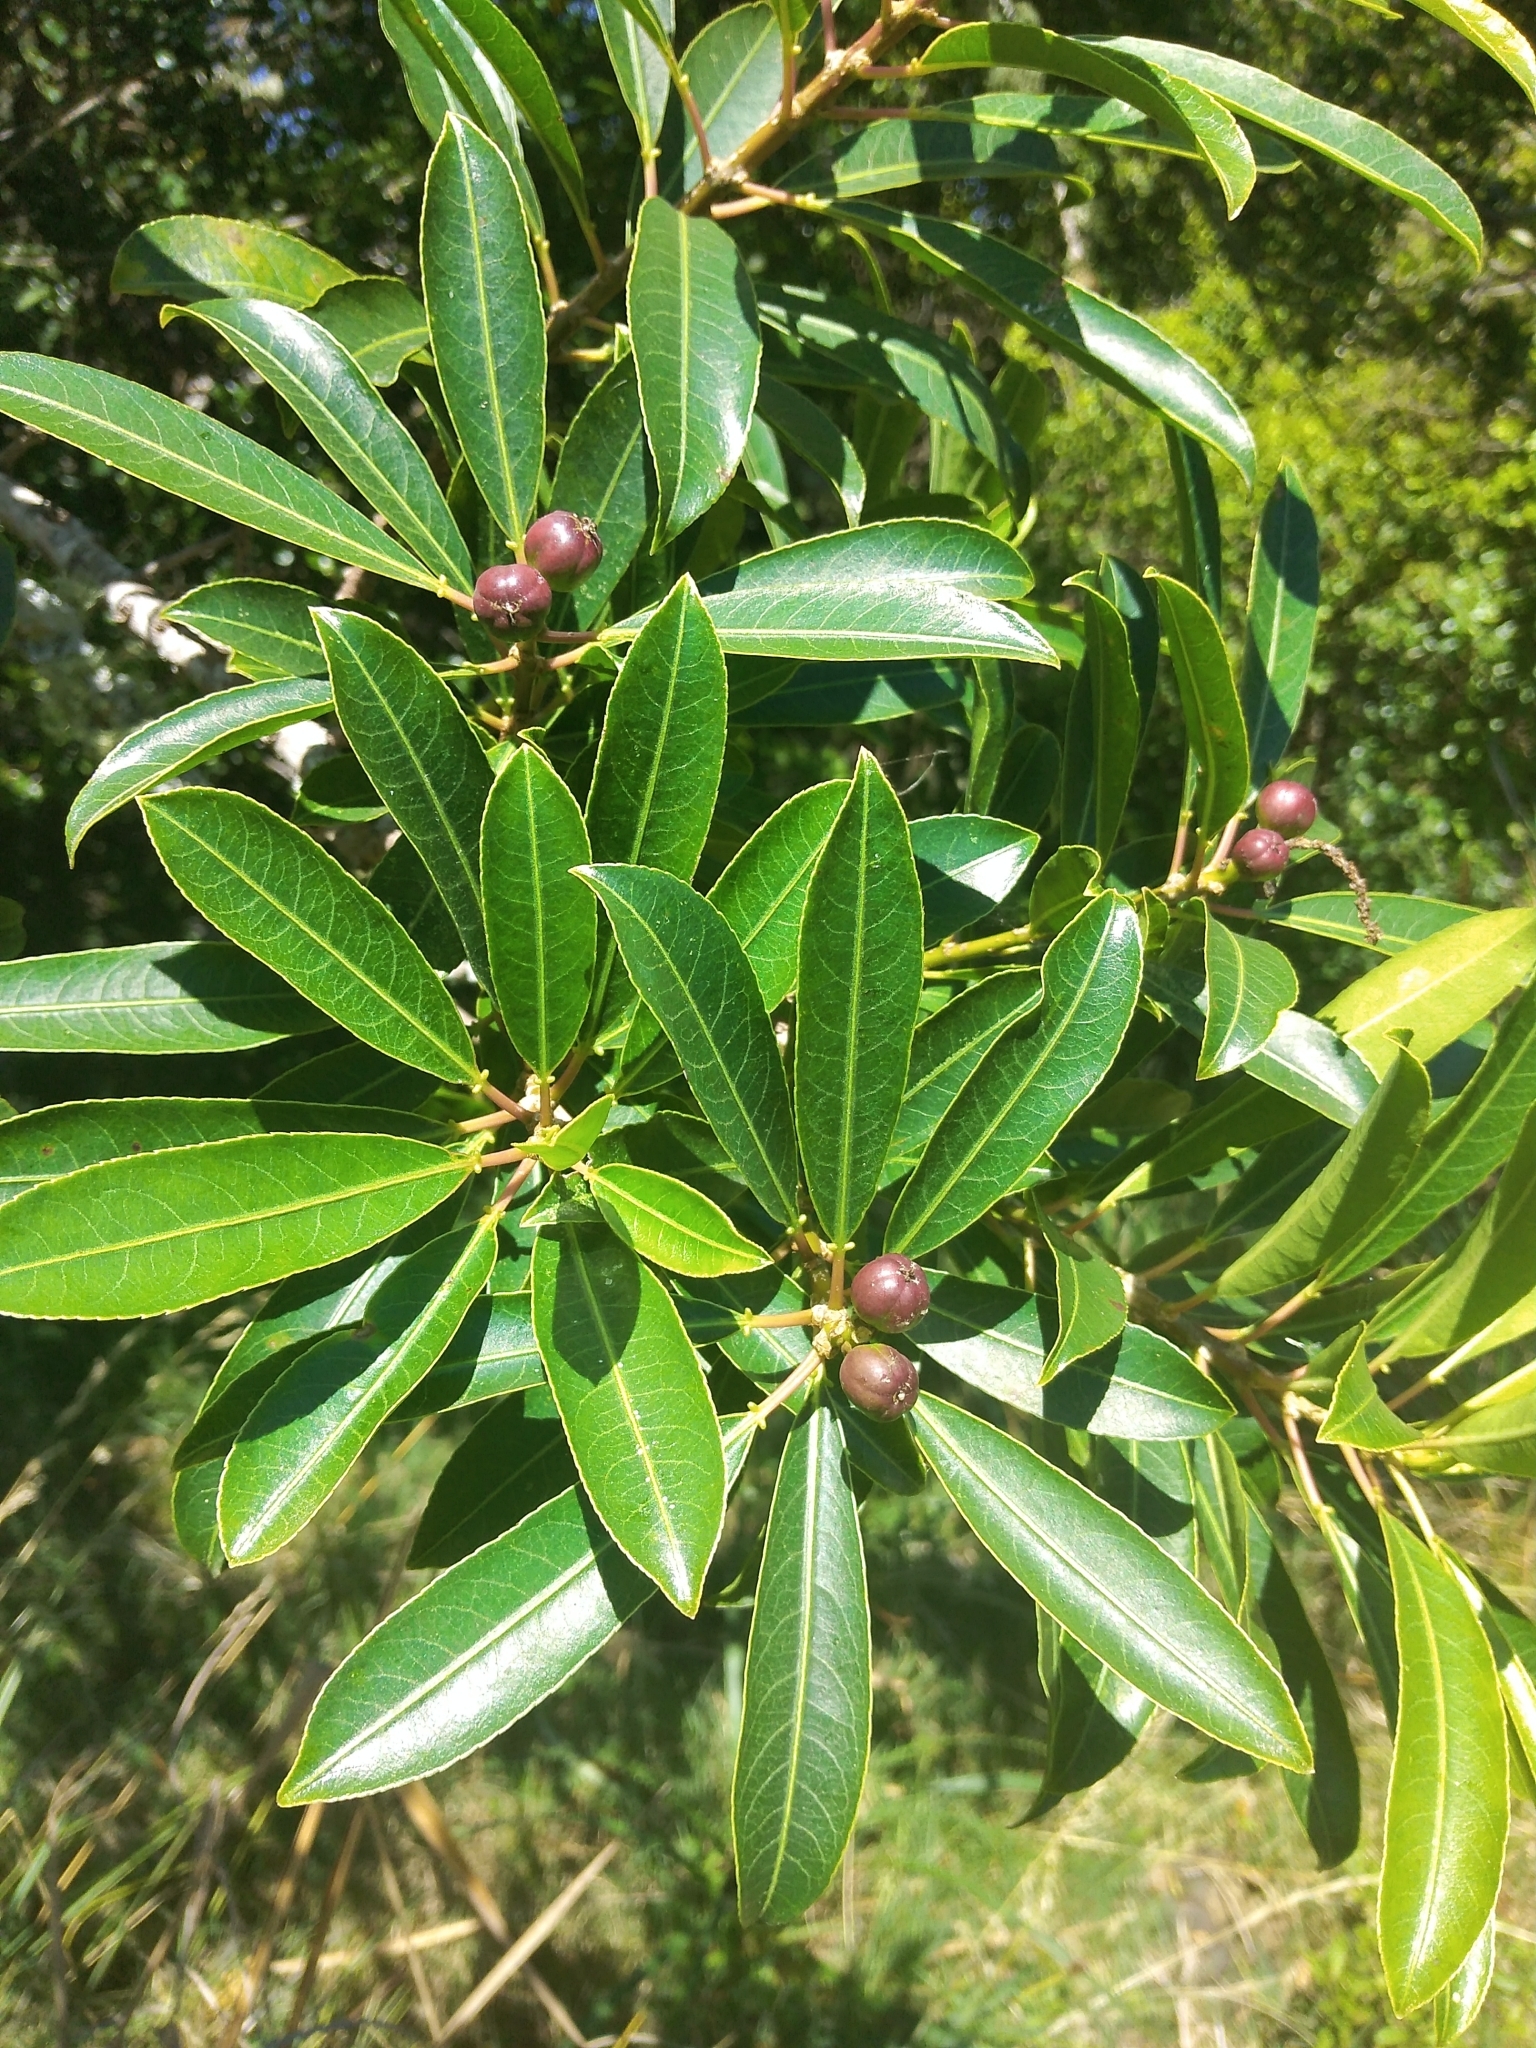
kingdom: Plantae
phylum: Tracheophyta
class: Magnoliopsida
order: Malpighiales
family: Euphorbiaceae
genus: Sapium
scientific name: Sapium glandulosum
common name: Milktree
